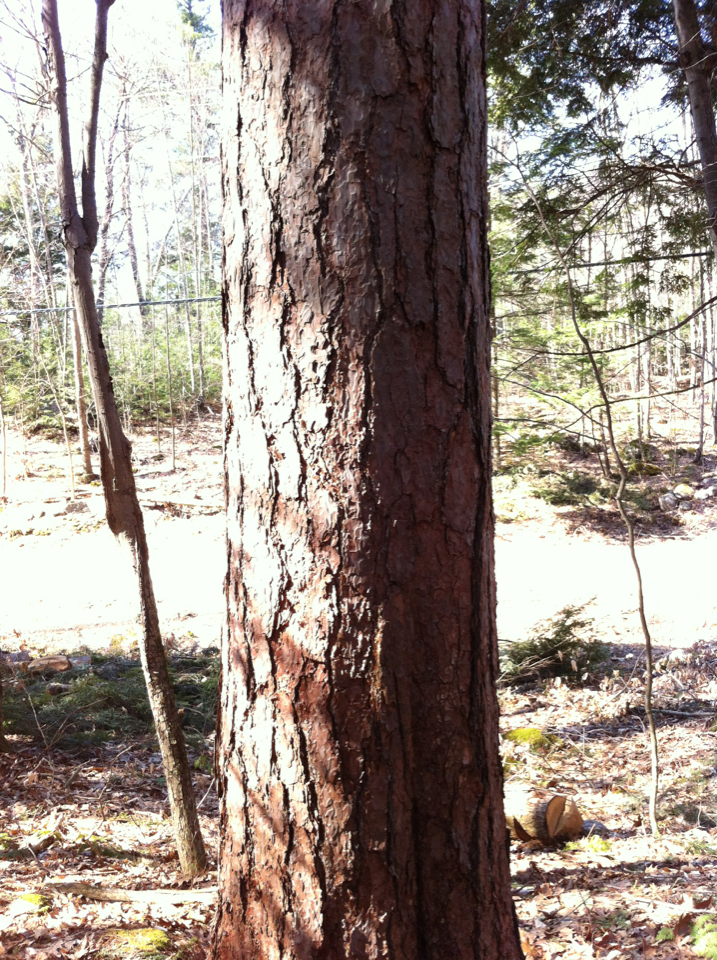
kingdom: Plantae
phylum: Tracheophyta
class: Pinopsida
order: Pinales
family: Pinaceae
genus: Pinus
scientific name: Pinus resinosa
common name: Norway pine
